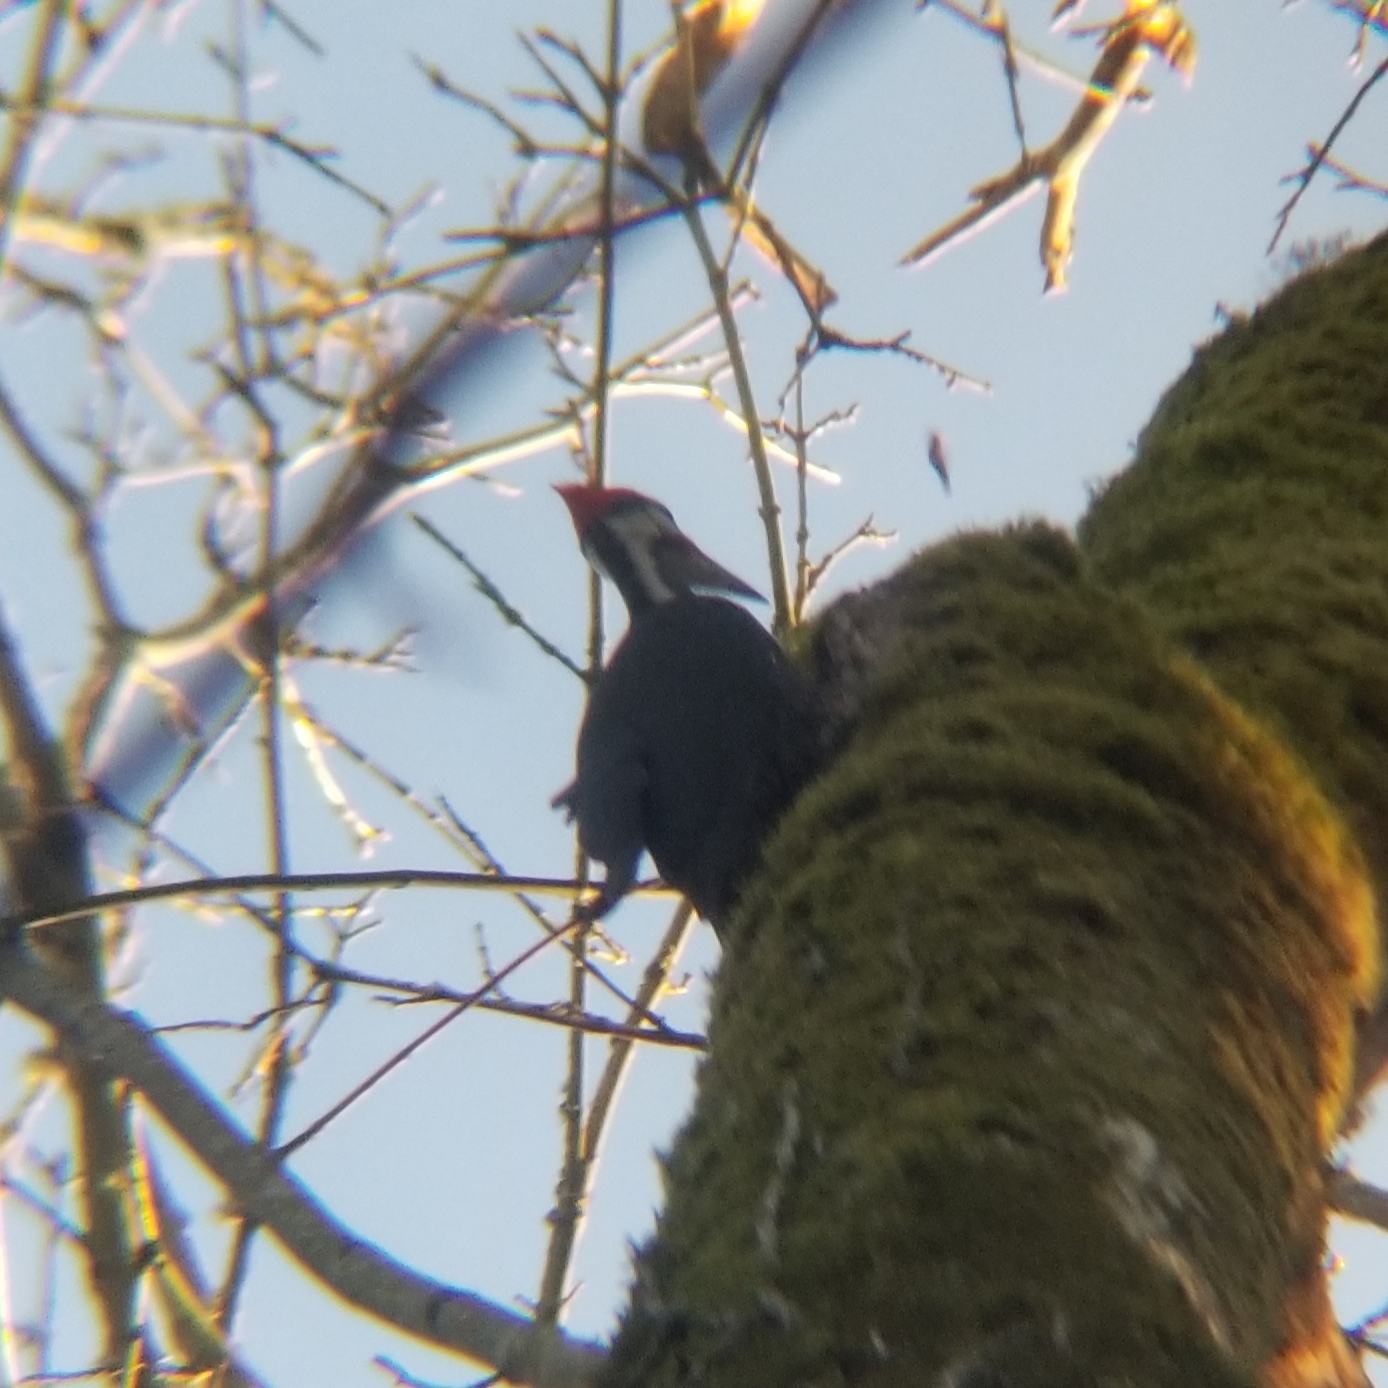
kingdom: Animalia
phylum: Chordata
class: Aves
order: Piciformes
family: Picidae
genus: Dryocopus
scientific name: Dryocopus pileatus
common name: Pileated woodpecker
